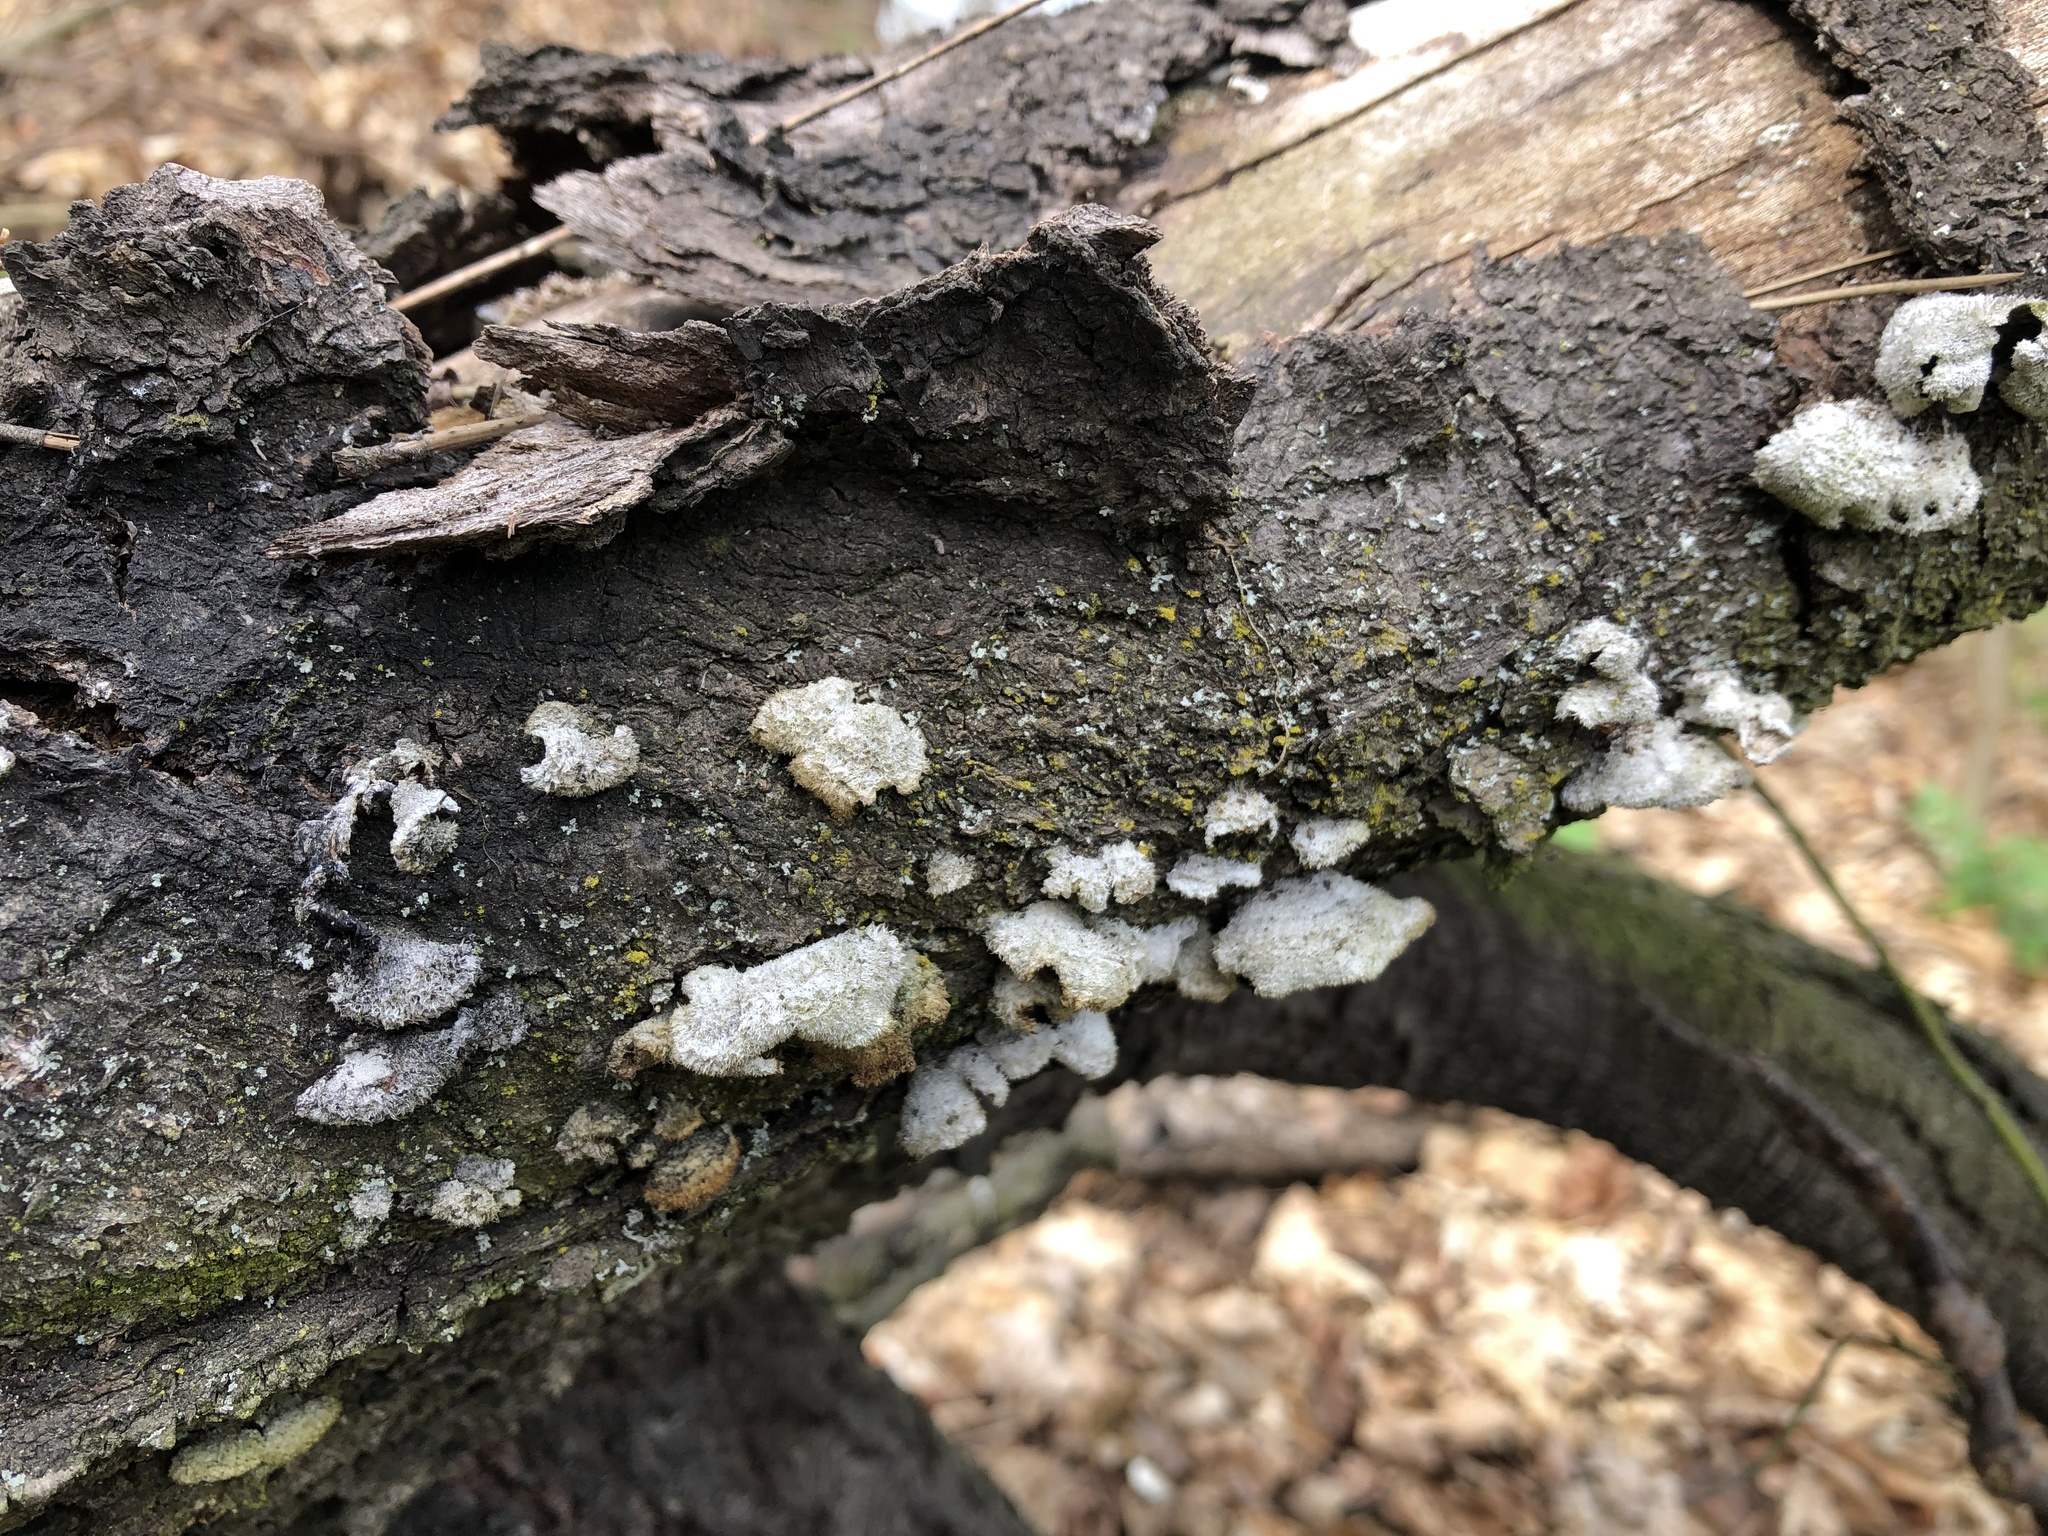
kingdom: Fungi
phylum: Basidiomycota
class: Agaricomycetes
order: Agaricales
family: Schizophyllaceae
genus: Schizophyllum
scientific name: Schizophyllum commune
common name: Common porecrust
